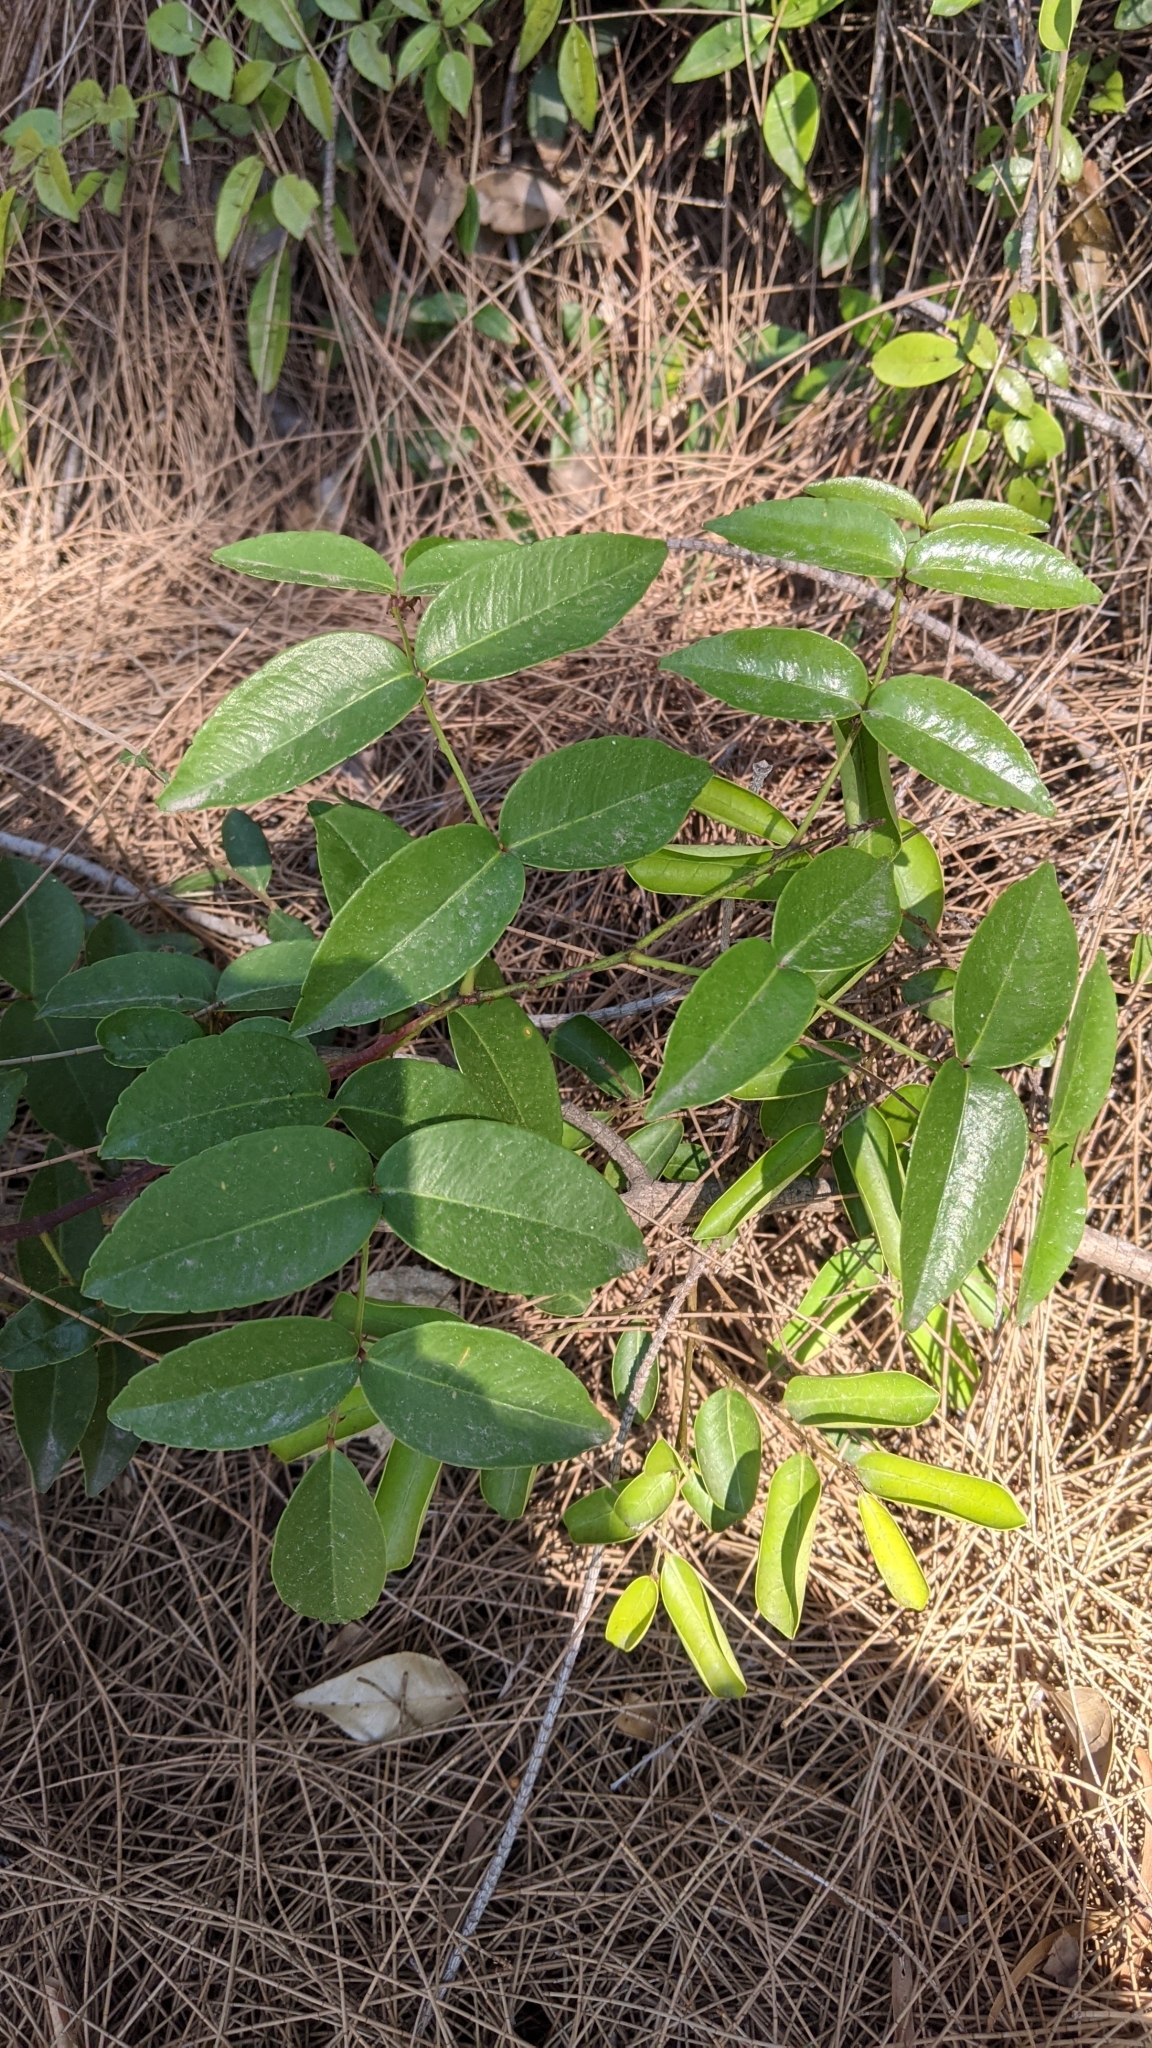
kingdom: Plantae
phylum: Tracheophyta
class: Magnoliopsida
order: Sapindales
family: Rutaceae
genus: Zanthoxylum
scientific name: Zanthoxylum nitidum
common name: Shiny-leaf prickly-ash
